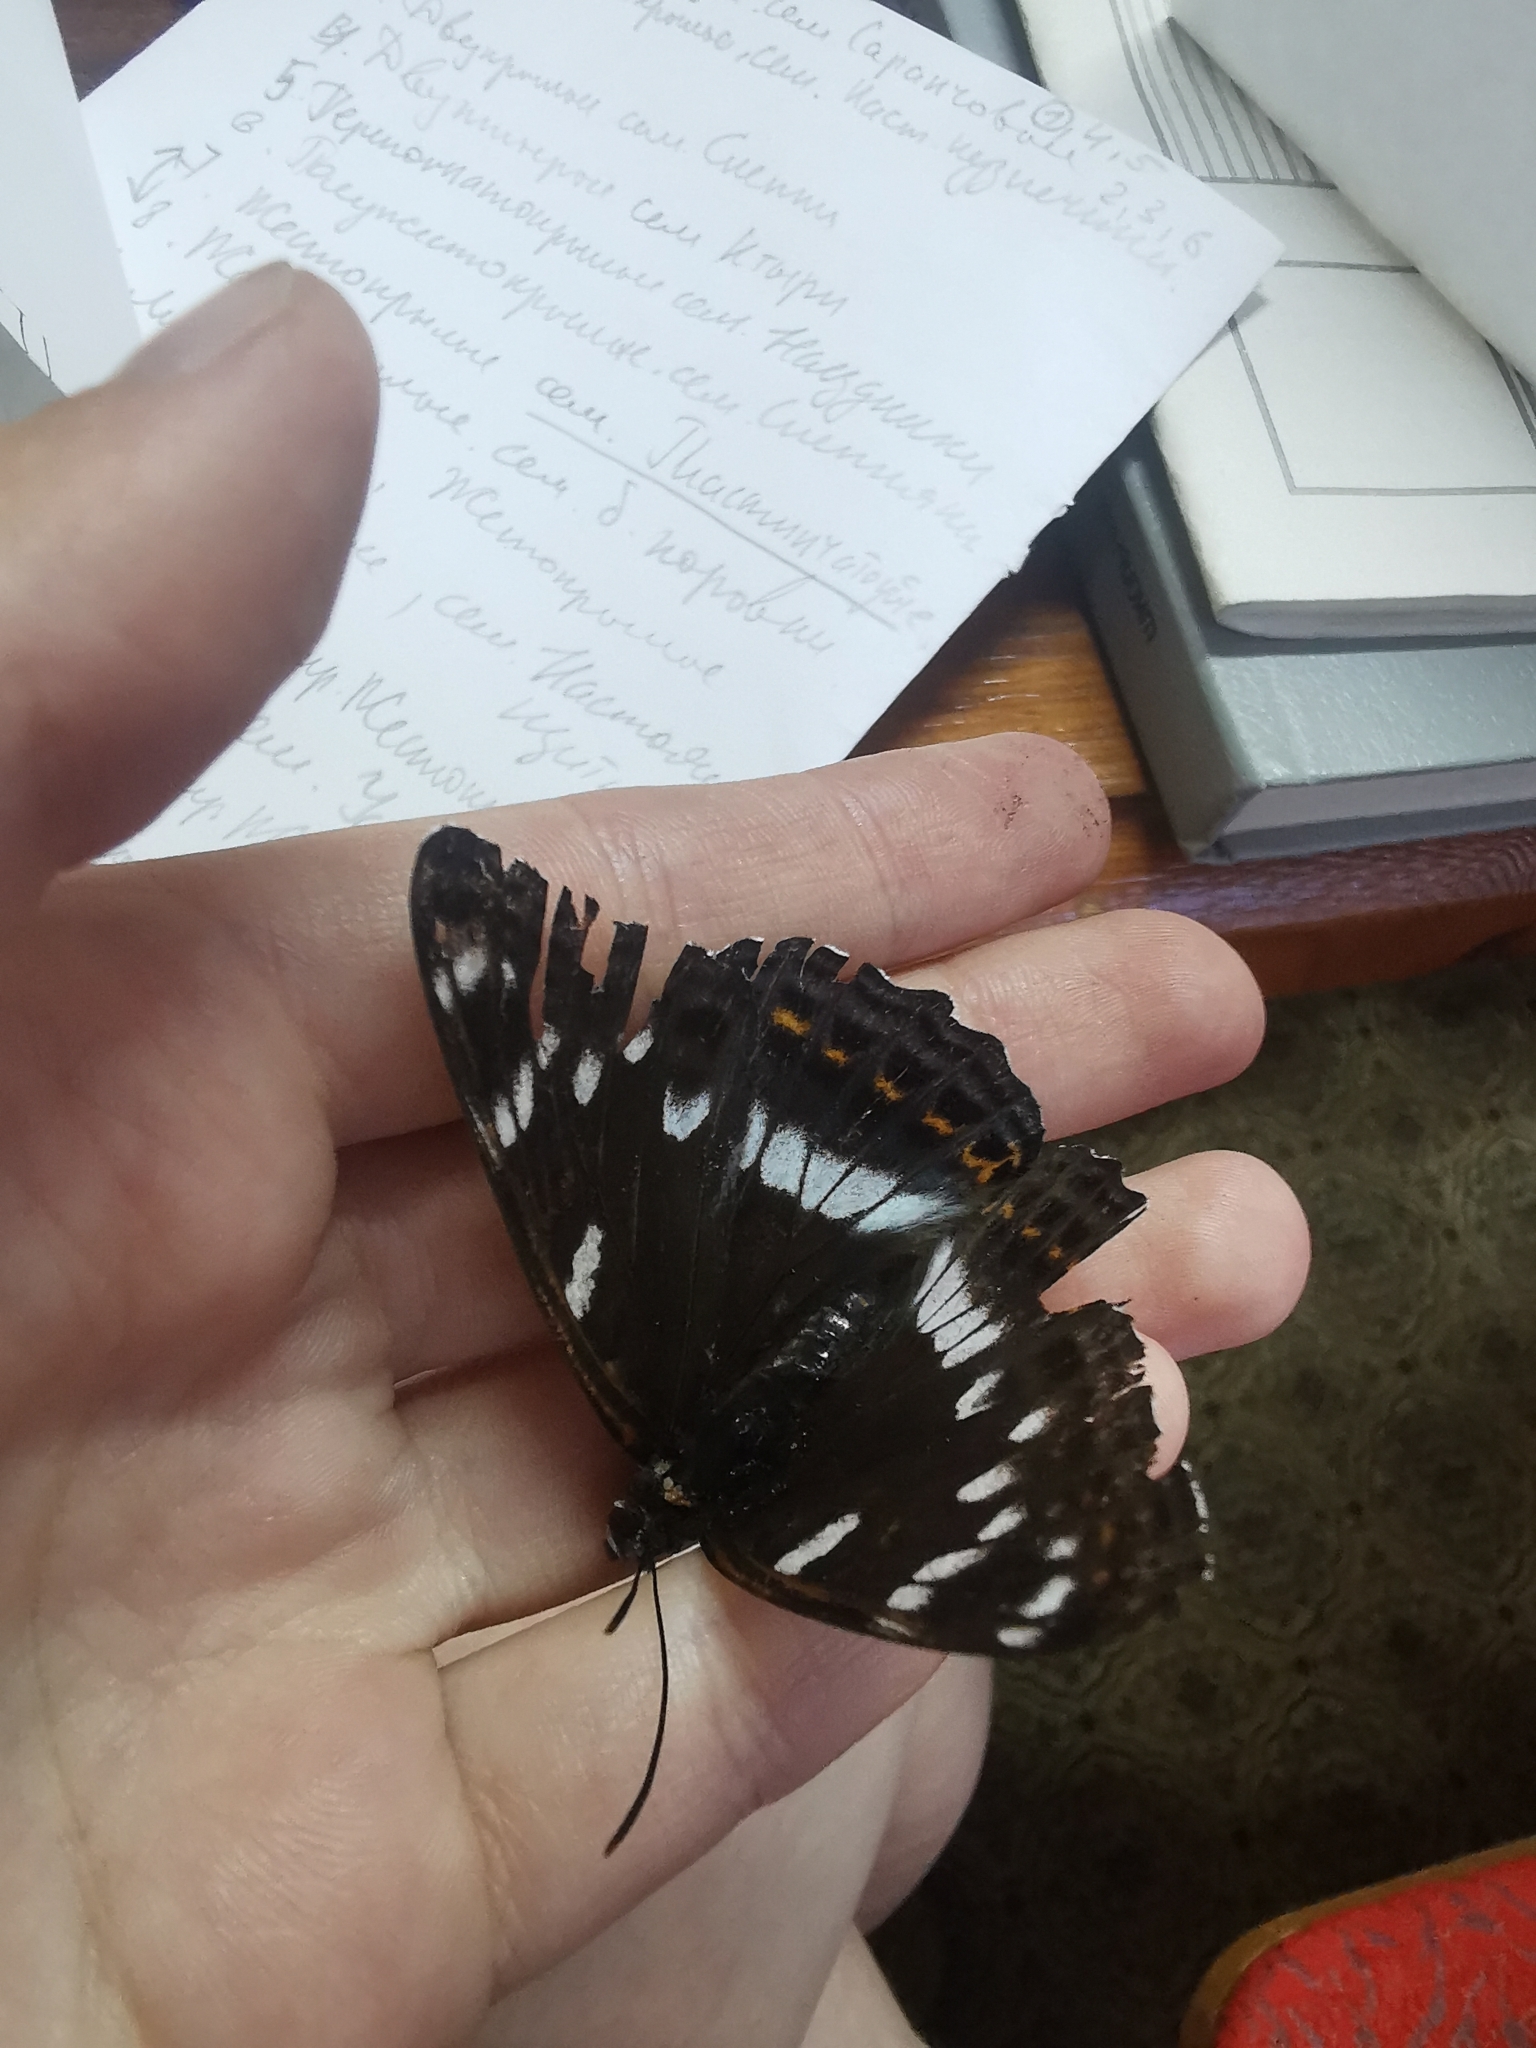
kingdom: Animalia
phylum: Arthropoda
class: Insecta
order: Lepidoptera
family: Nymphalidae
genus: Limenitis
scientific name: Limenitis populi
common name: Poplar admiral
